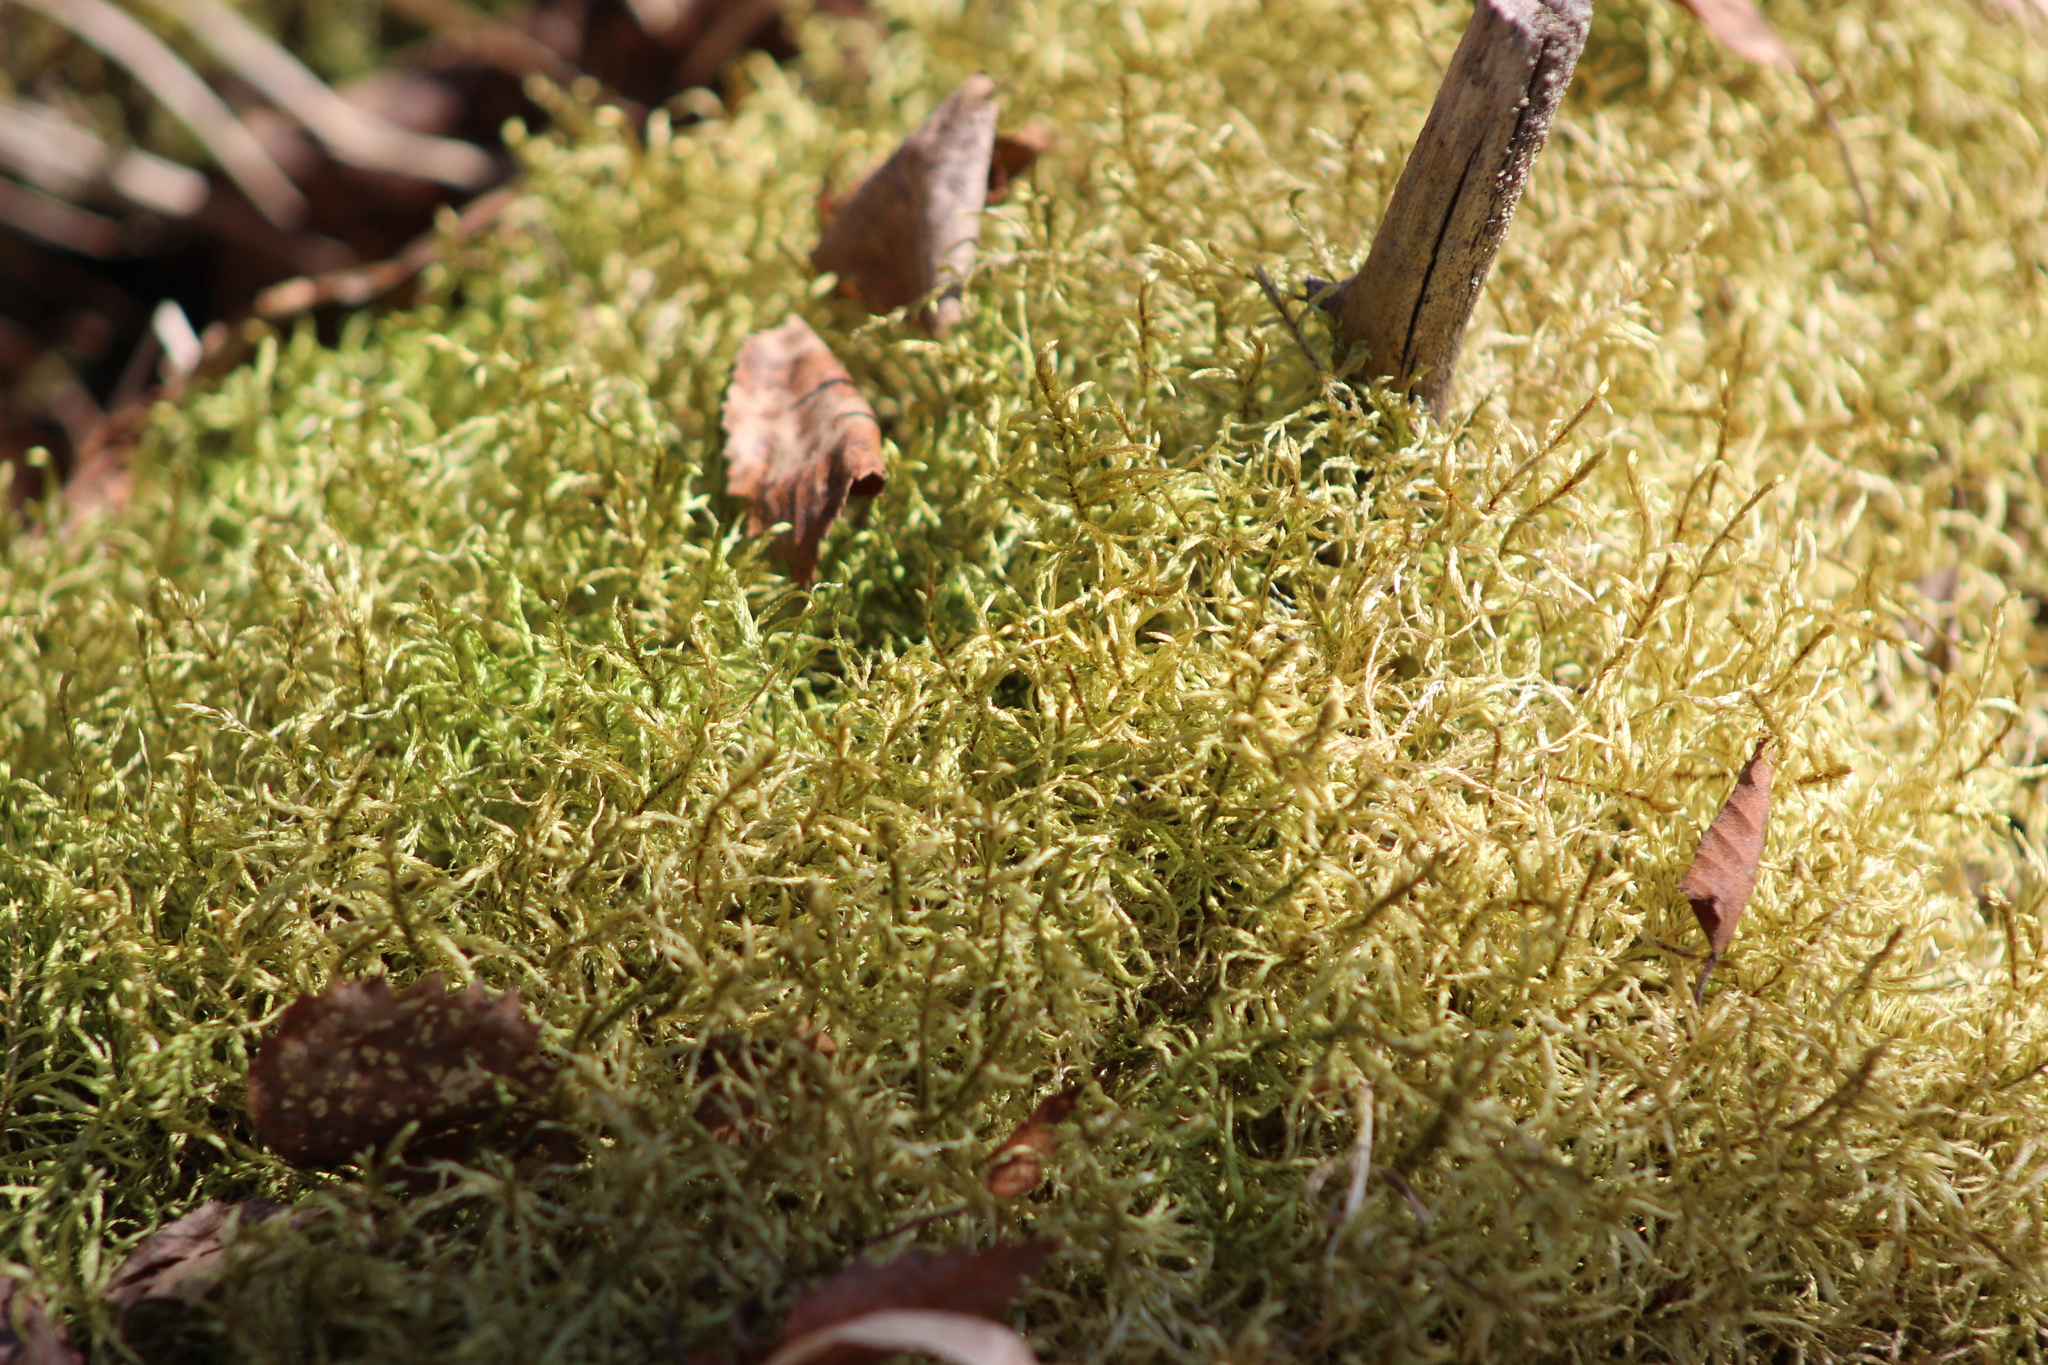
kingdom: Plantae
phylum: Bryophyta
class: Bryopsida
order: Hypnales
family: Hylocomiaceae
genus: Pleurozium
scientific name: Pleurozium schreberi
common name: Red-stemmed feather moss
